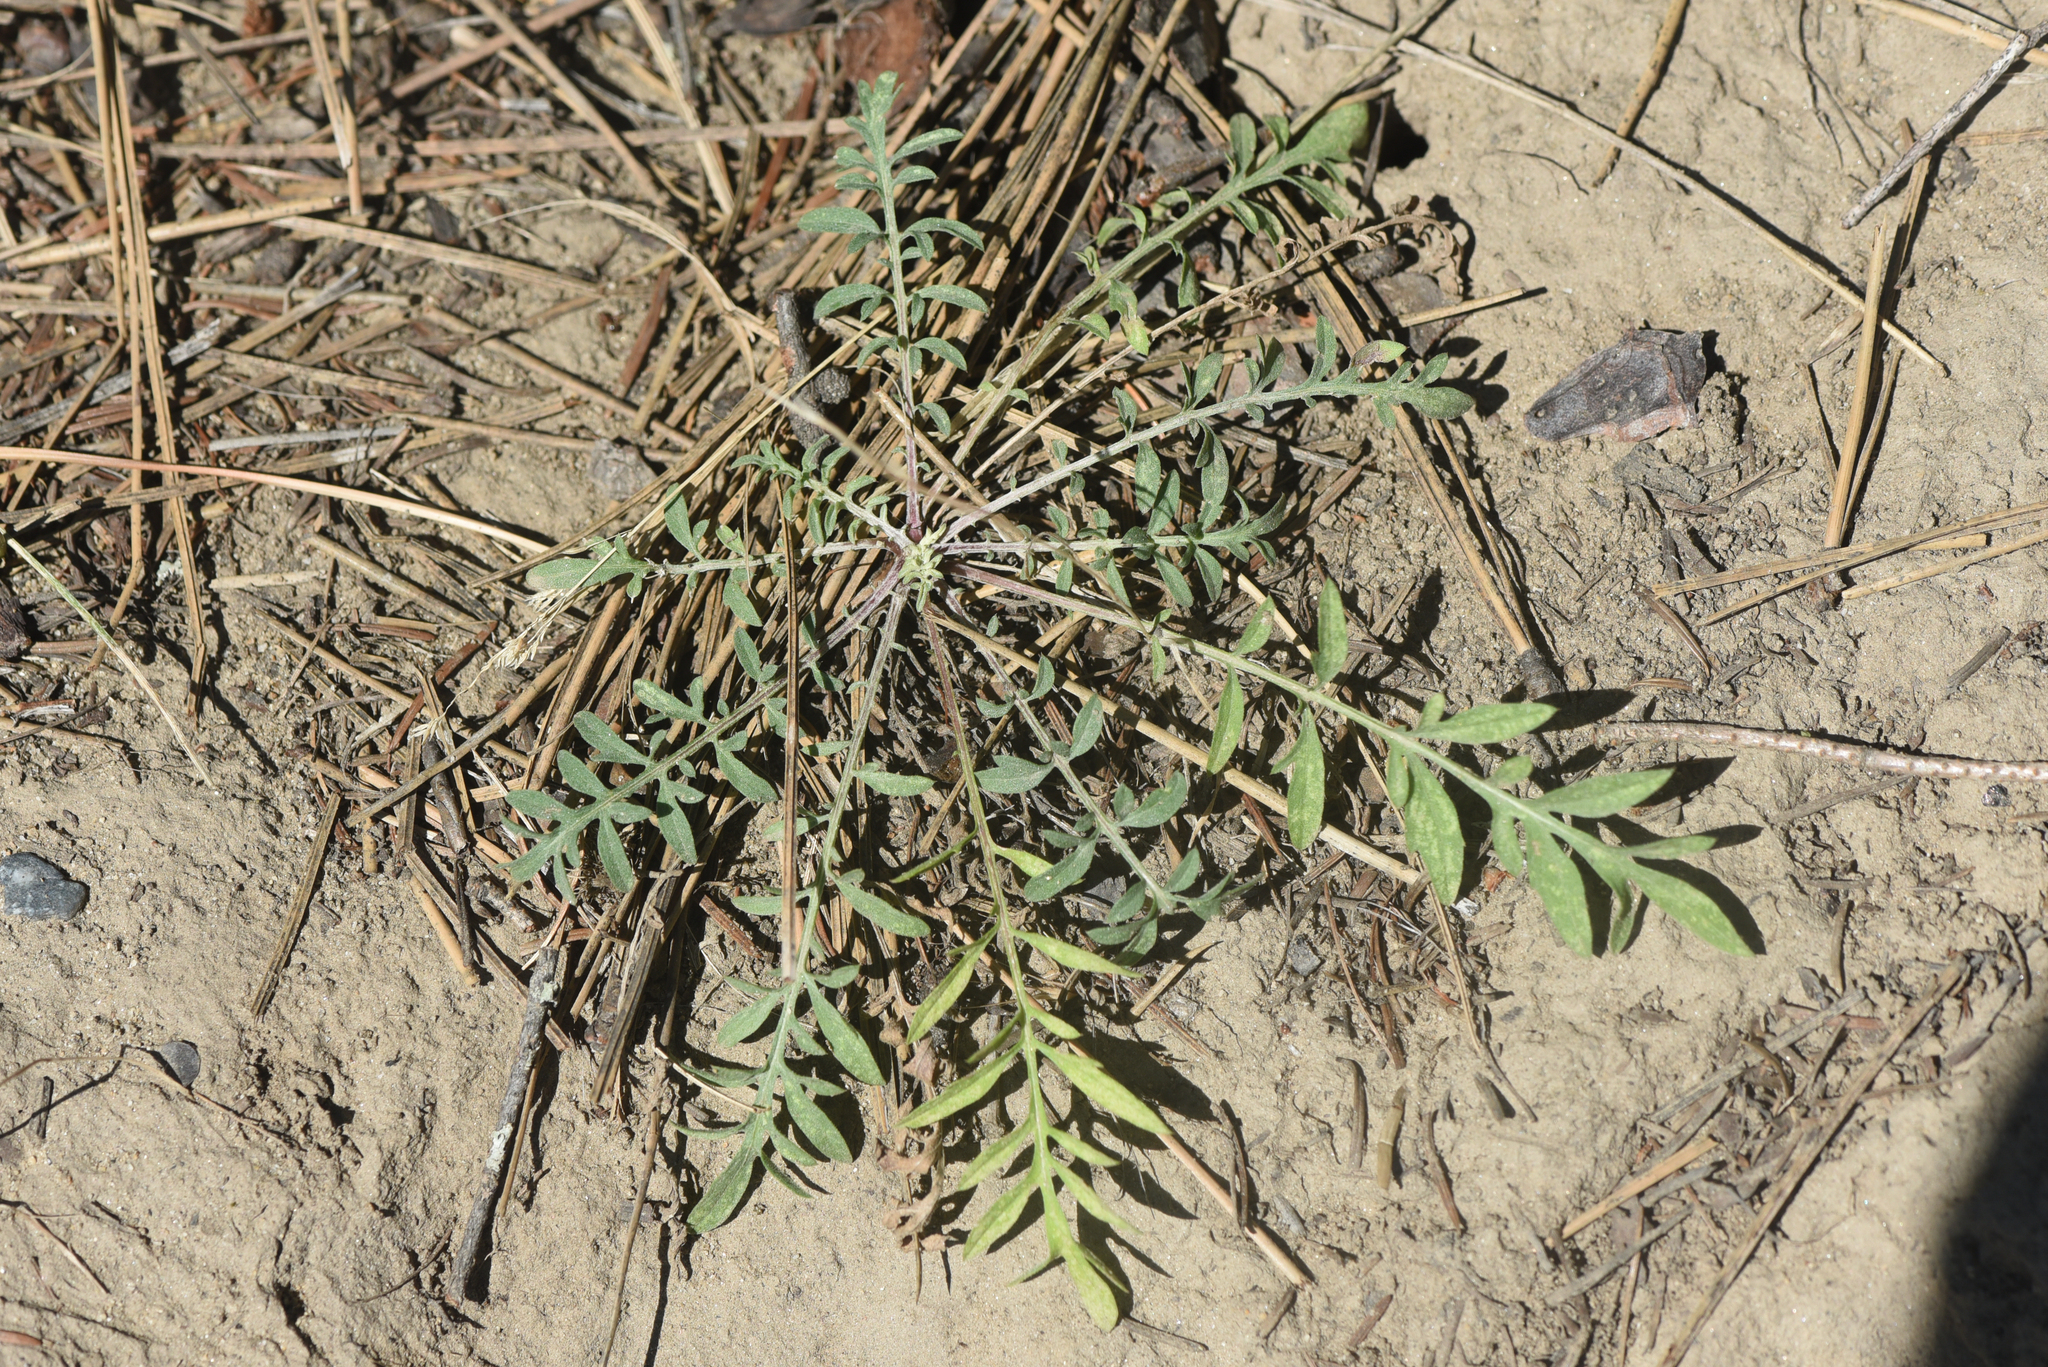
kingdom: Plantae
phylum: Tracheophyta
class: Magnoliopsida
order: Asterales
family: Asteraceae
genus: Centaurea
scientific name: Centaurea stoebe
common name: Spotted knapweed
